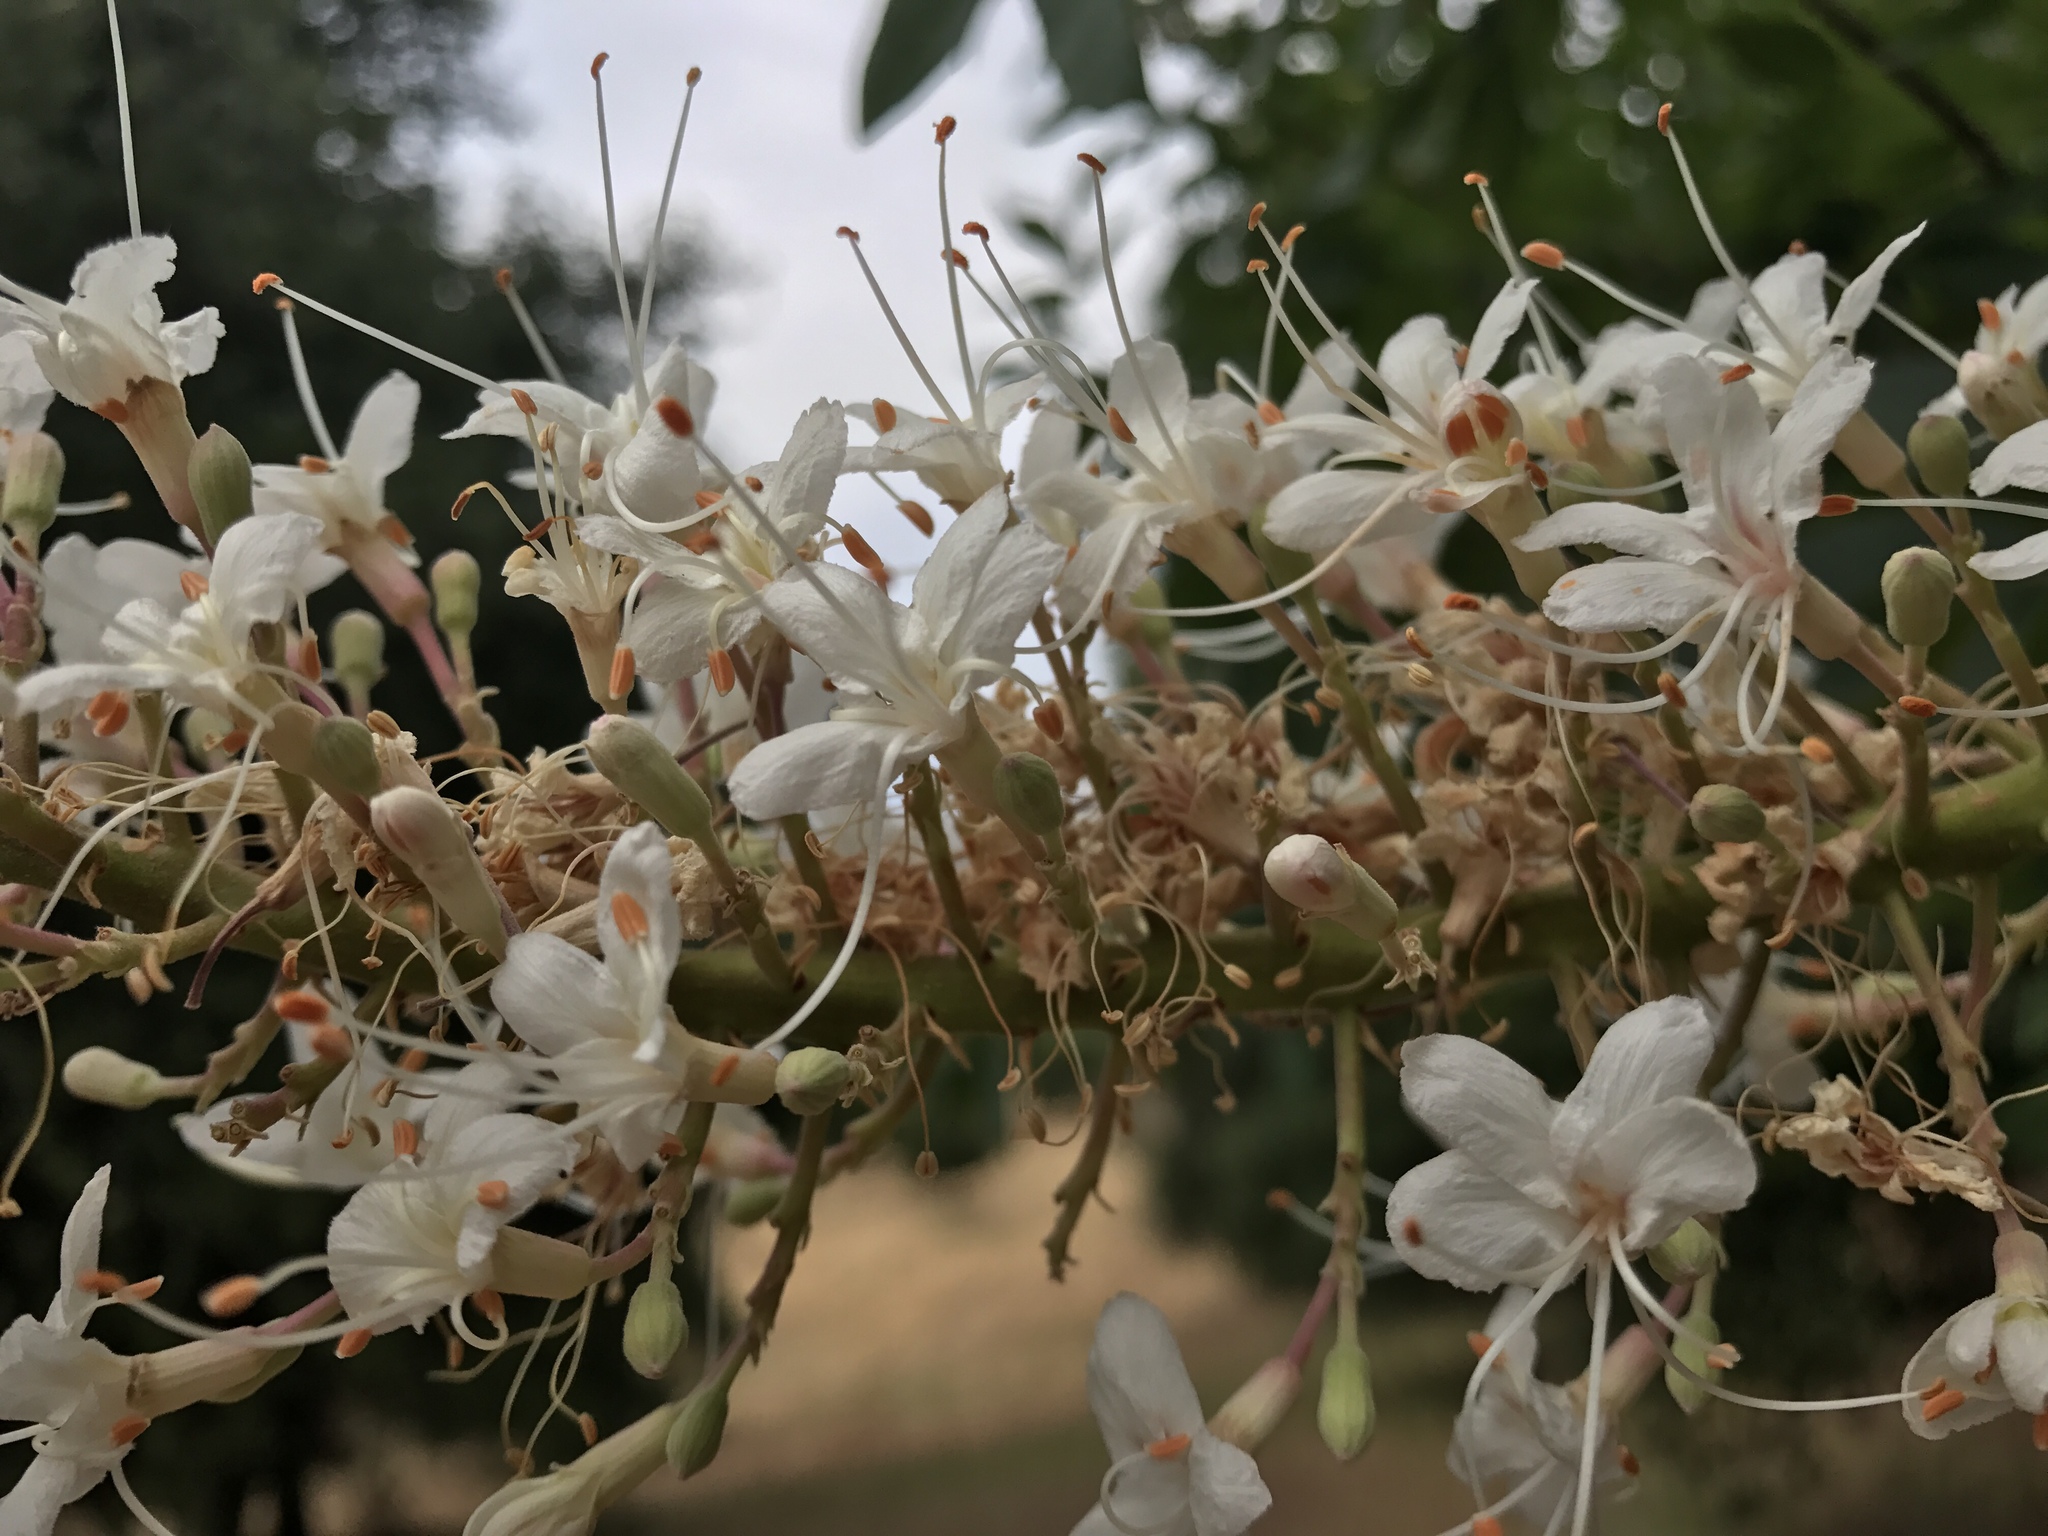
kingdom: Plantae
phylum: Tracheophyta
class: Magnoliopsida
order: Sapindales
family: Sapindaceae
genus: Aesculus
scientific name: Aesculus californica
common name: California buckeye
